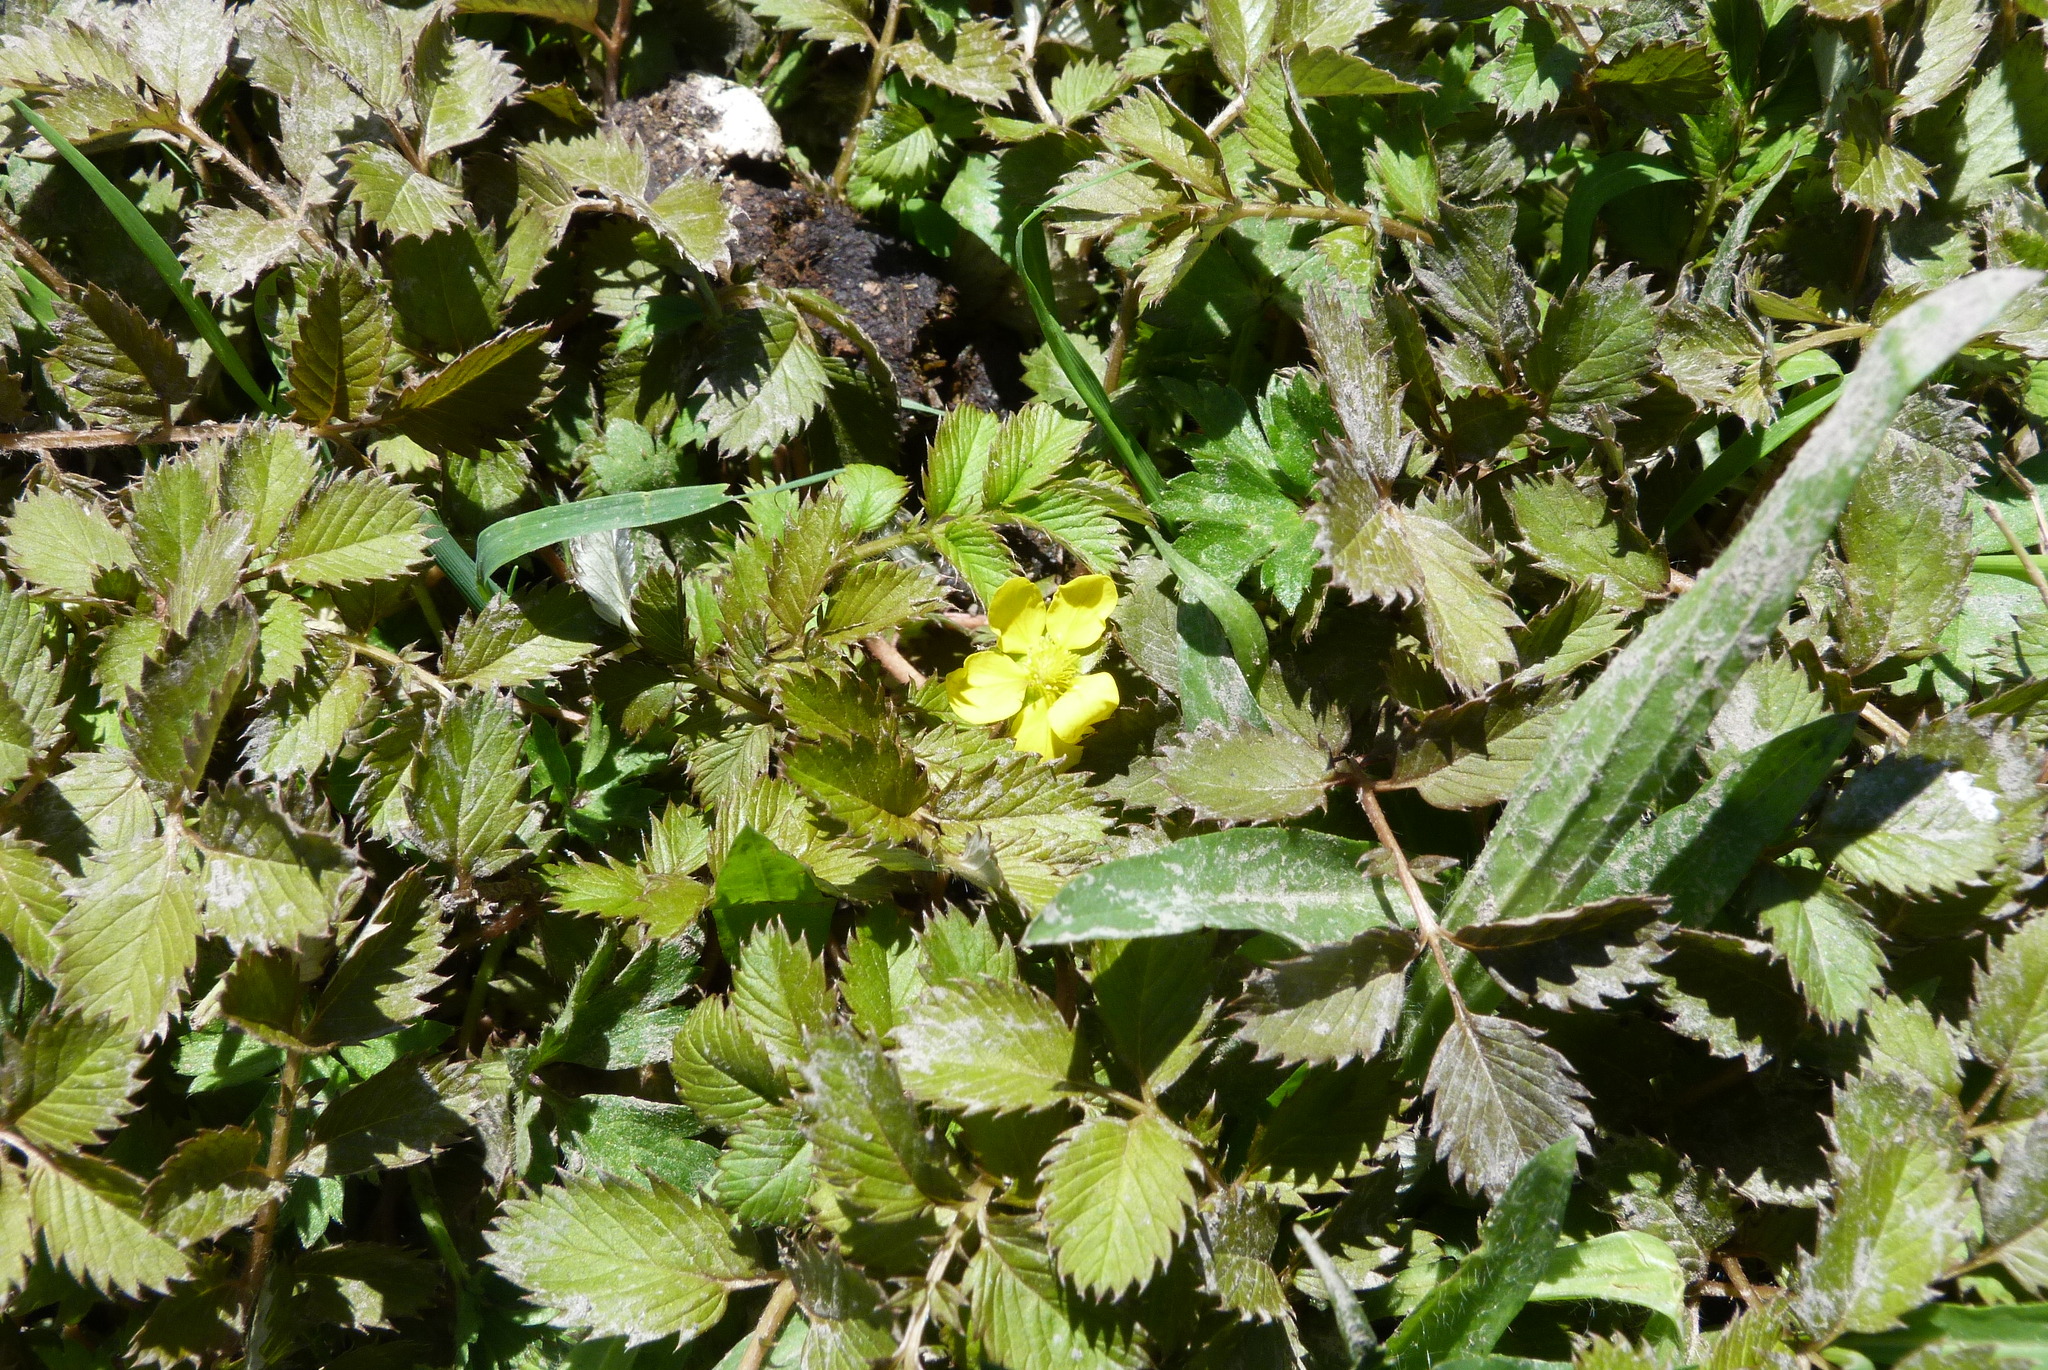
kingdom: Plantae
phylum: Tracheophyta
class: Magnoliopsida
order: Rosales
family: Rosaceae
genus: Argentina
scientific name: Argentina anserinoides
